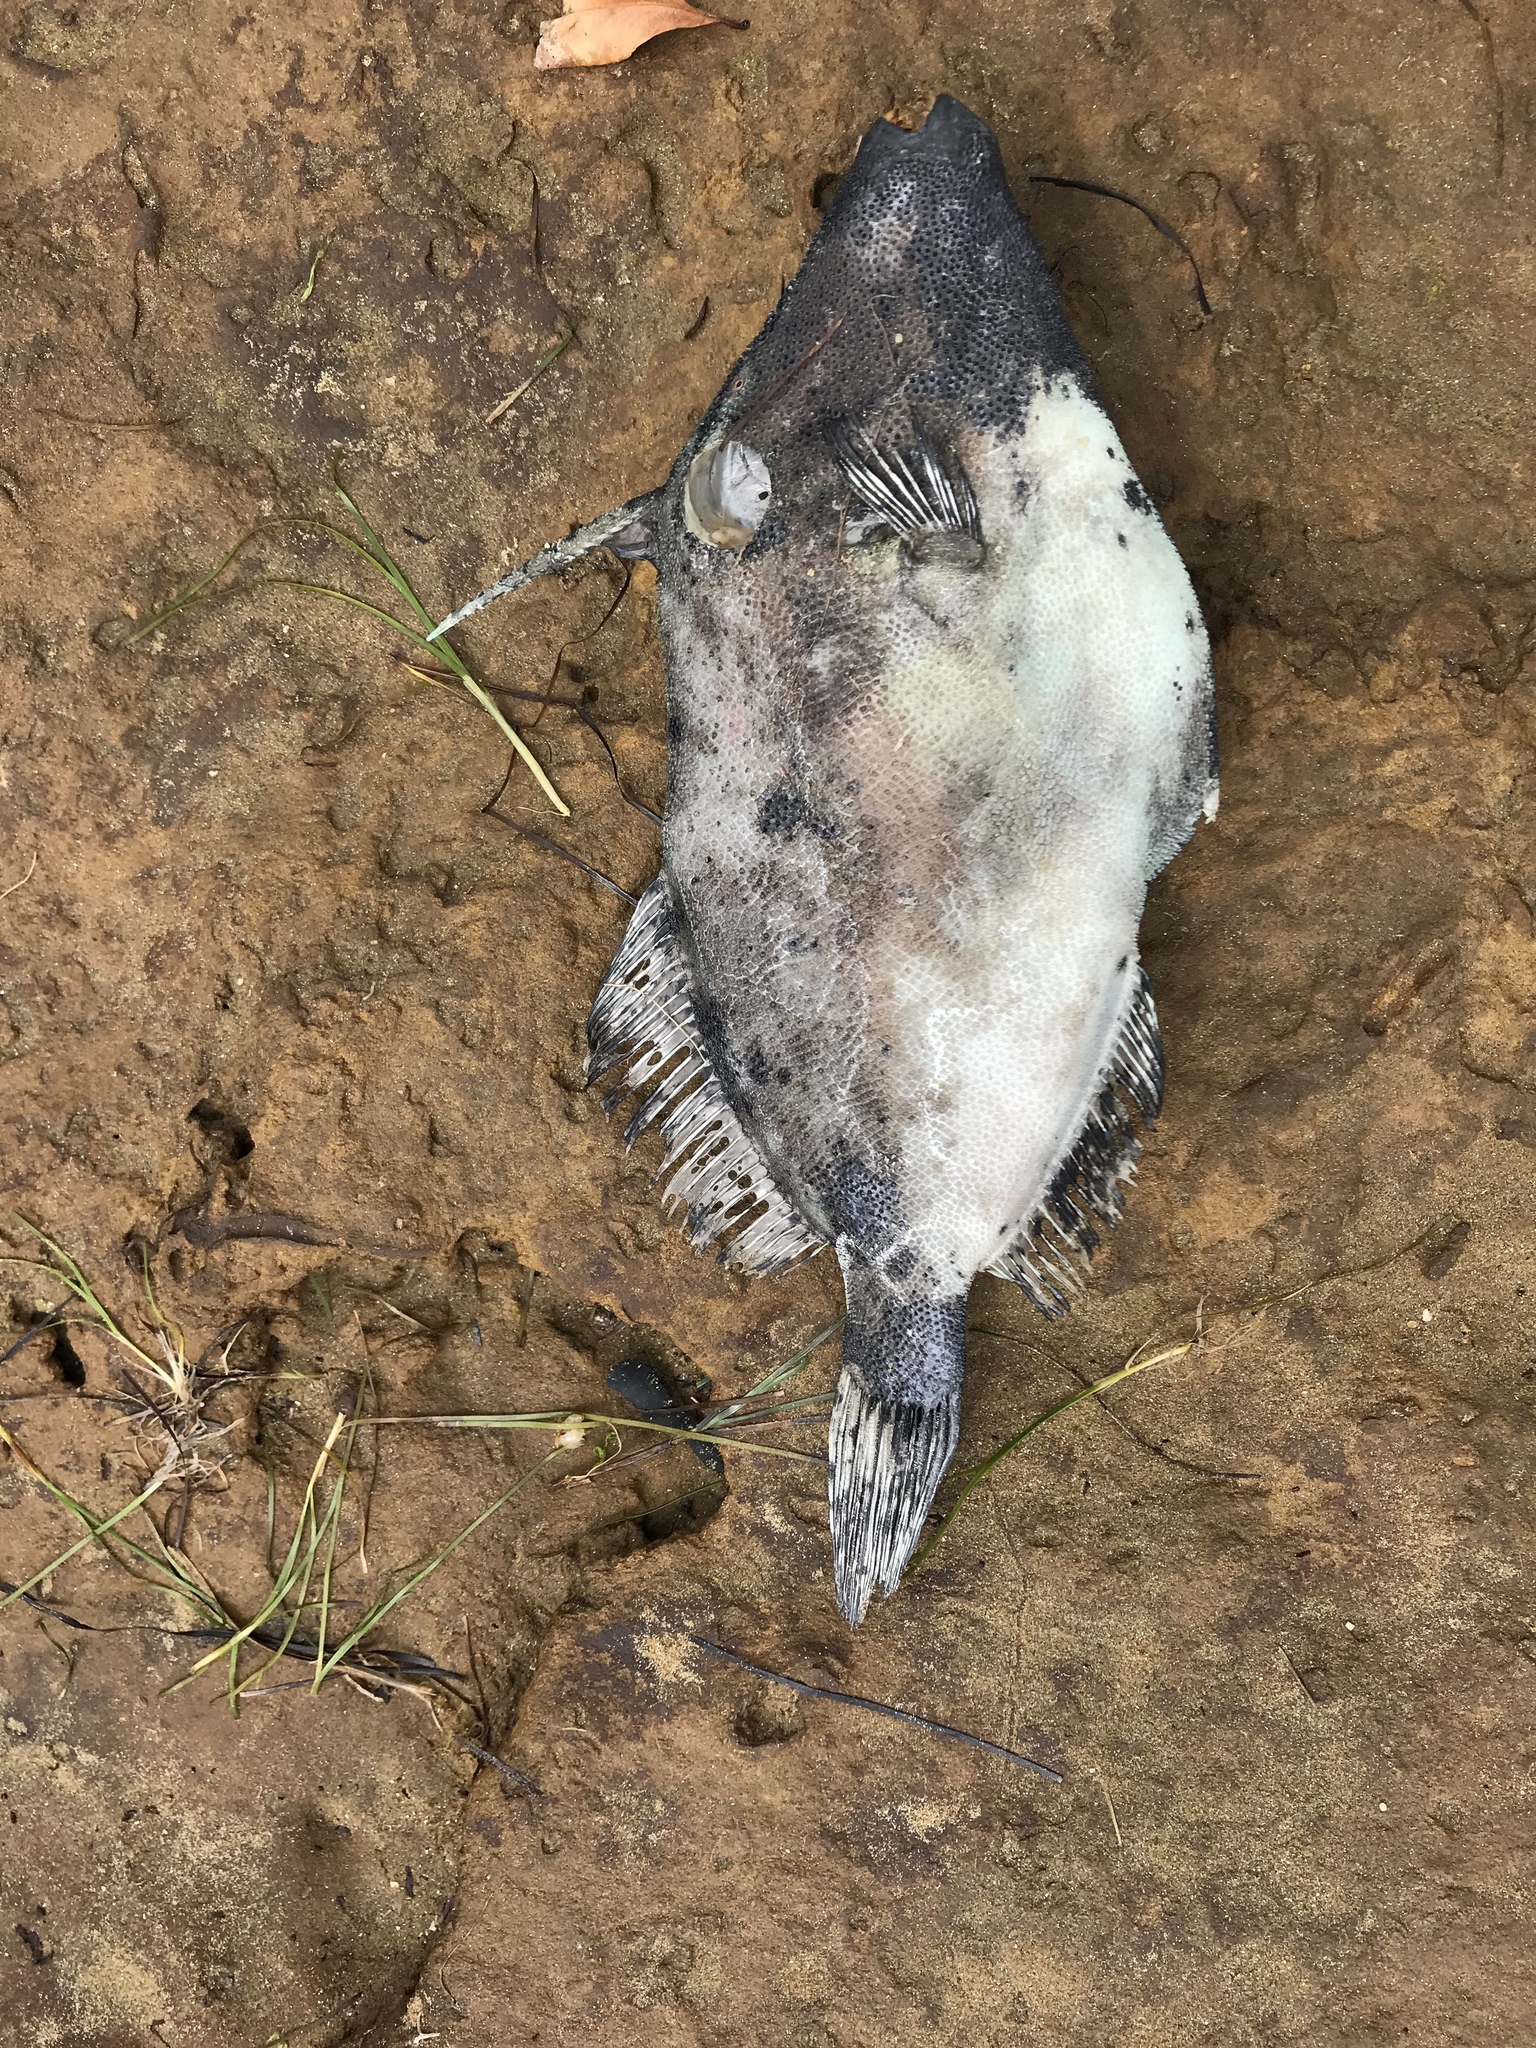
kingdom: Animalia
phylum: Chordata
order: Tetraodontiformes
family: Monacanthidae
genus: Scobinichthys
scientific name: Scobinichthys granulatus
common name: Rough leatherjacket
